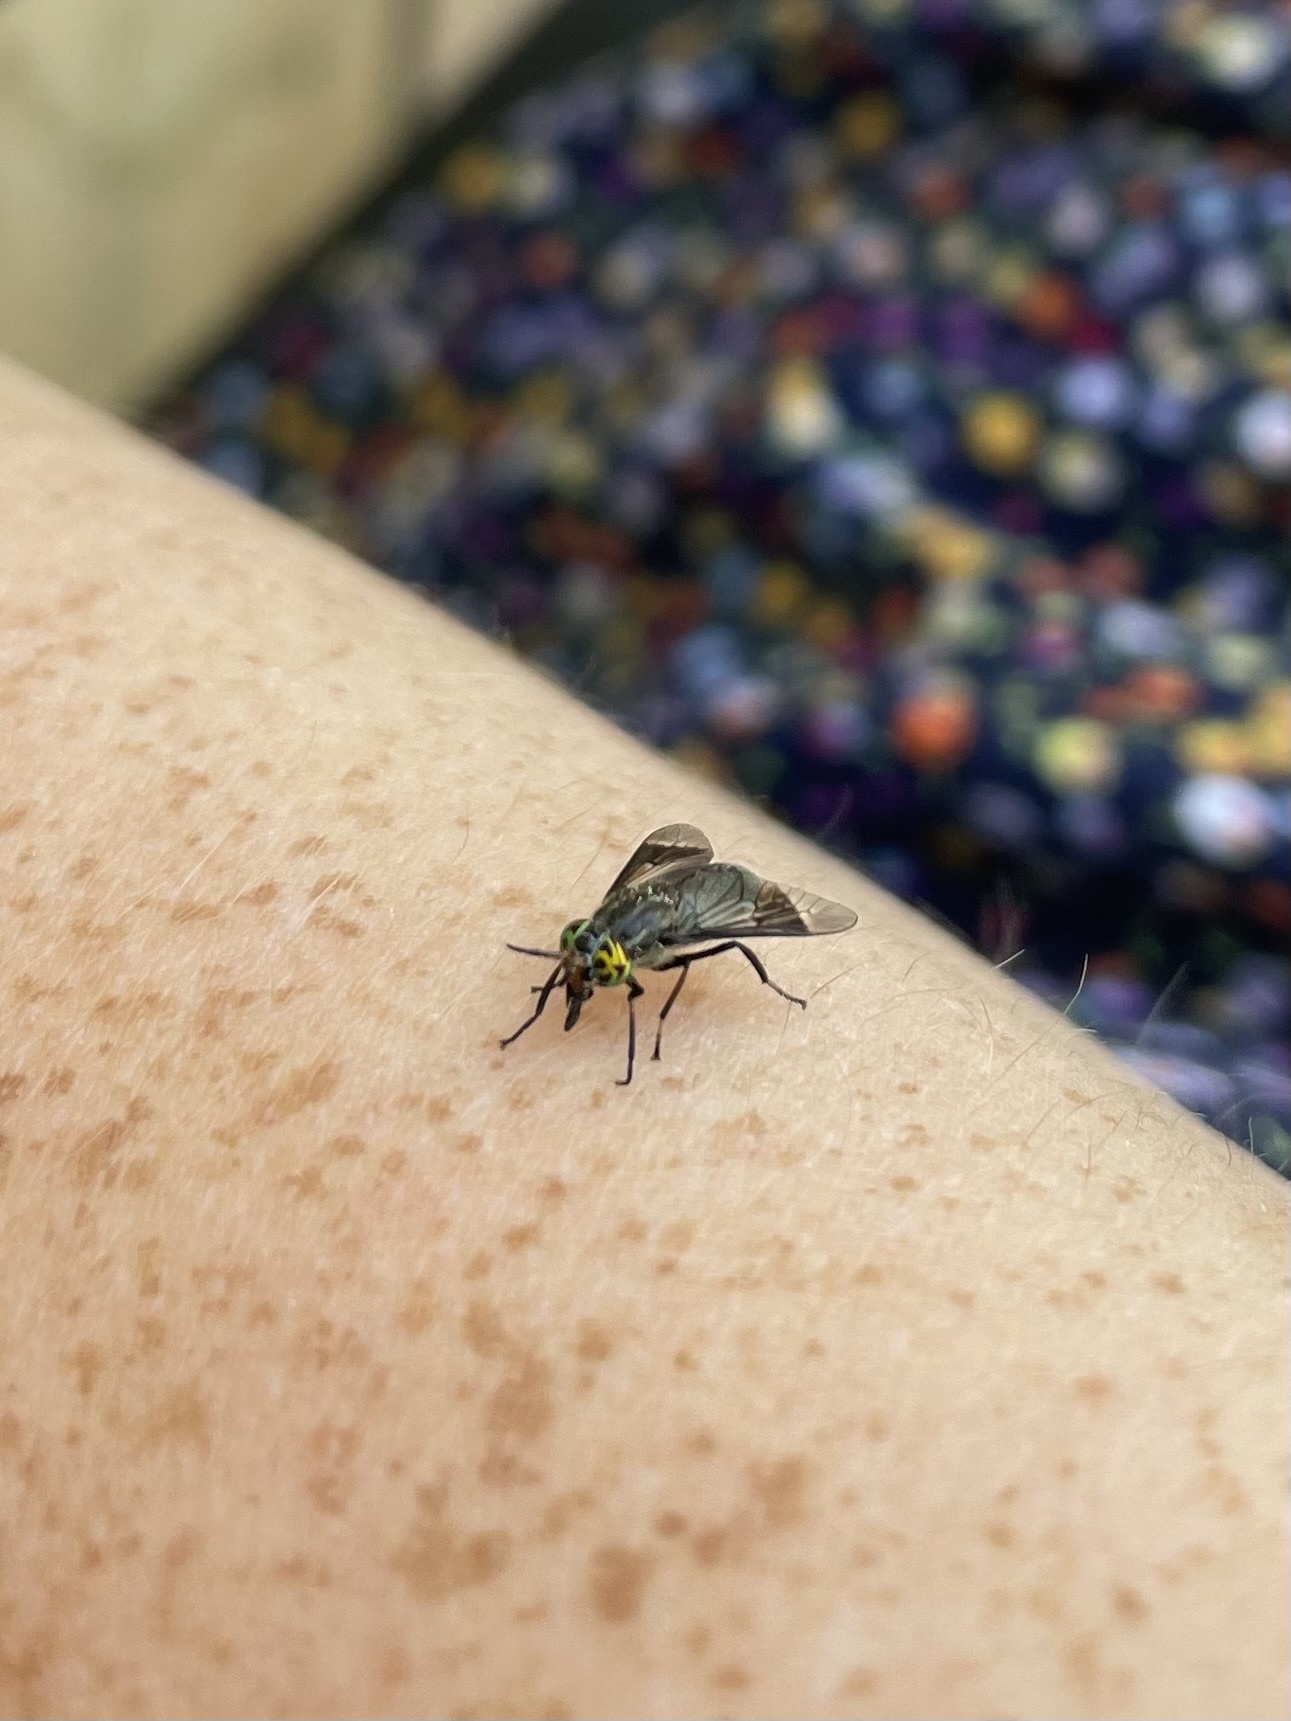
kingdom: Animalia
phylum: Arthropoda
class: Insecta
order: Diptera
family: Tabanidae
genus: Chrysops
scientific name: Chrysops niger
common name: Black deer fly
